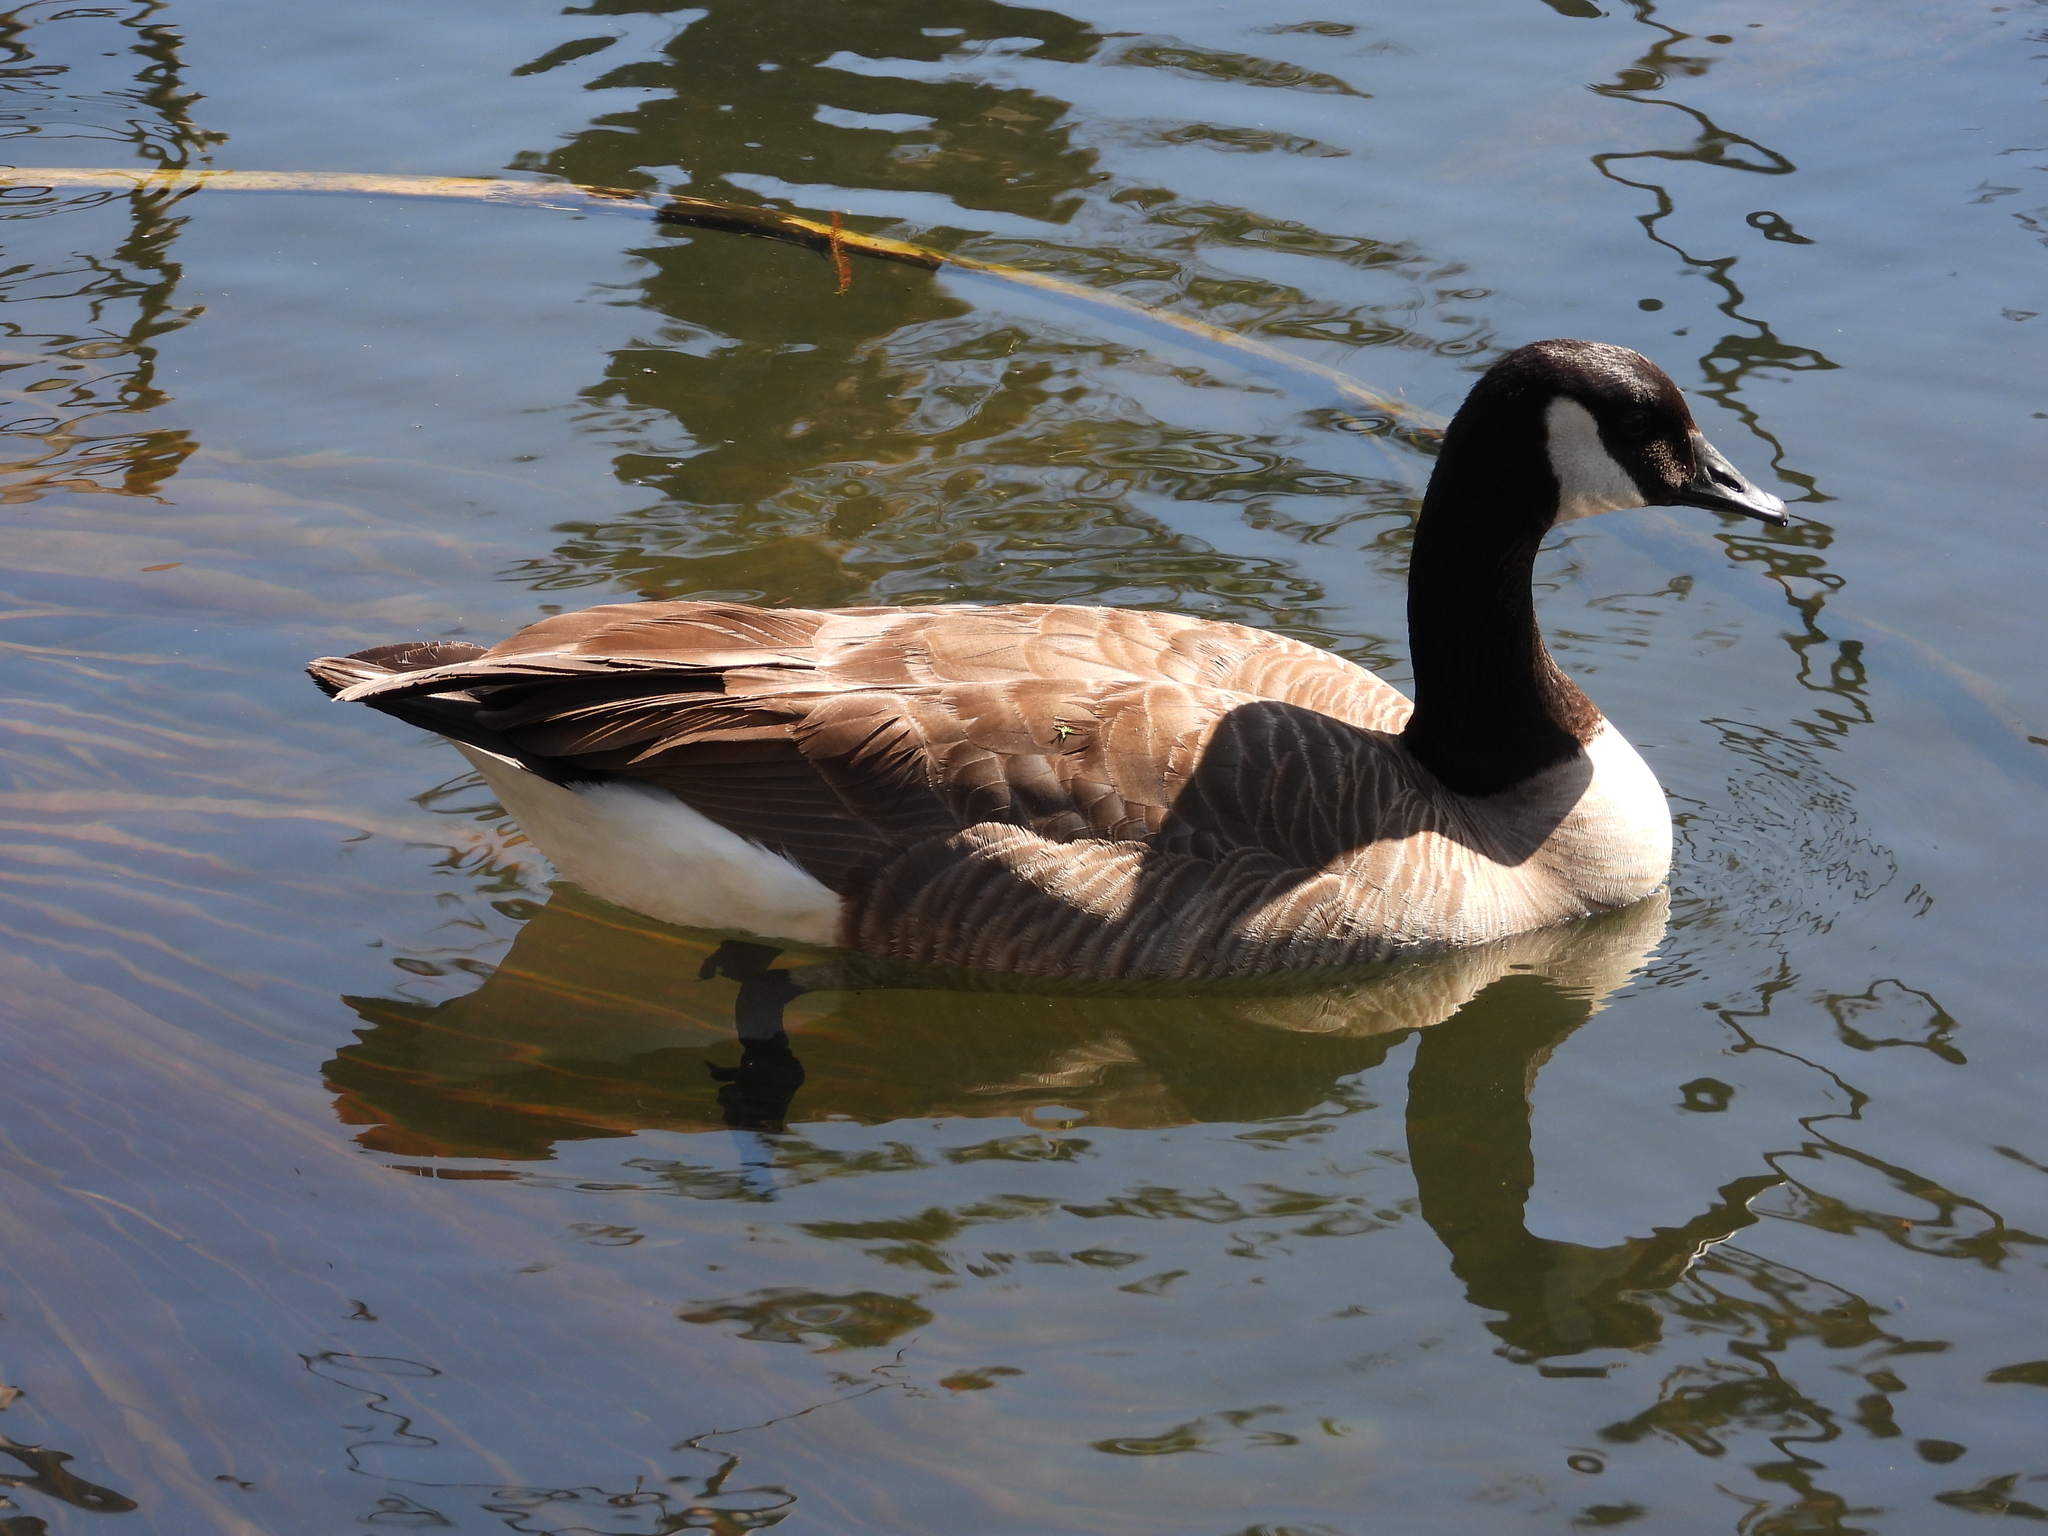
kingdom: Animalia
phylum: Chordata
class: Aves
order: Anseriformes
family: Anatidae
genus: Branta
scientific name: Branta canadensis
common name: Canada goose
